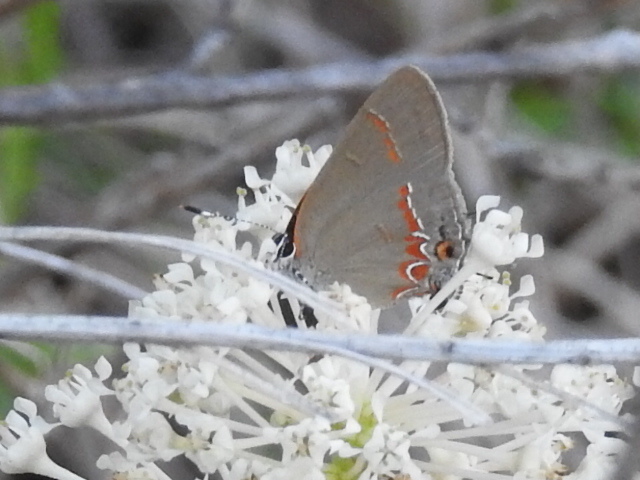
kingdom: Animalia
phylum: Arthropoda
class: Insecta
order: Lepidoptera
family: Lycaenidae
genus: Calycopis
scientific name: Calycopis isobeon
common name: Dusky-blue groundstreak
